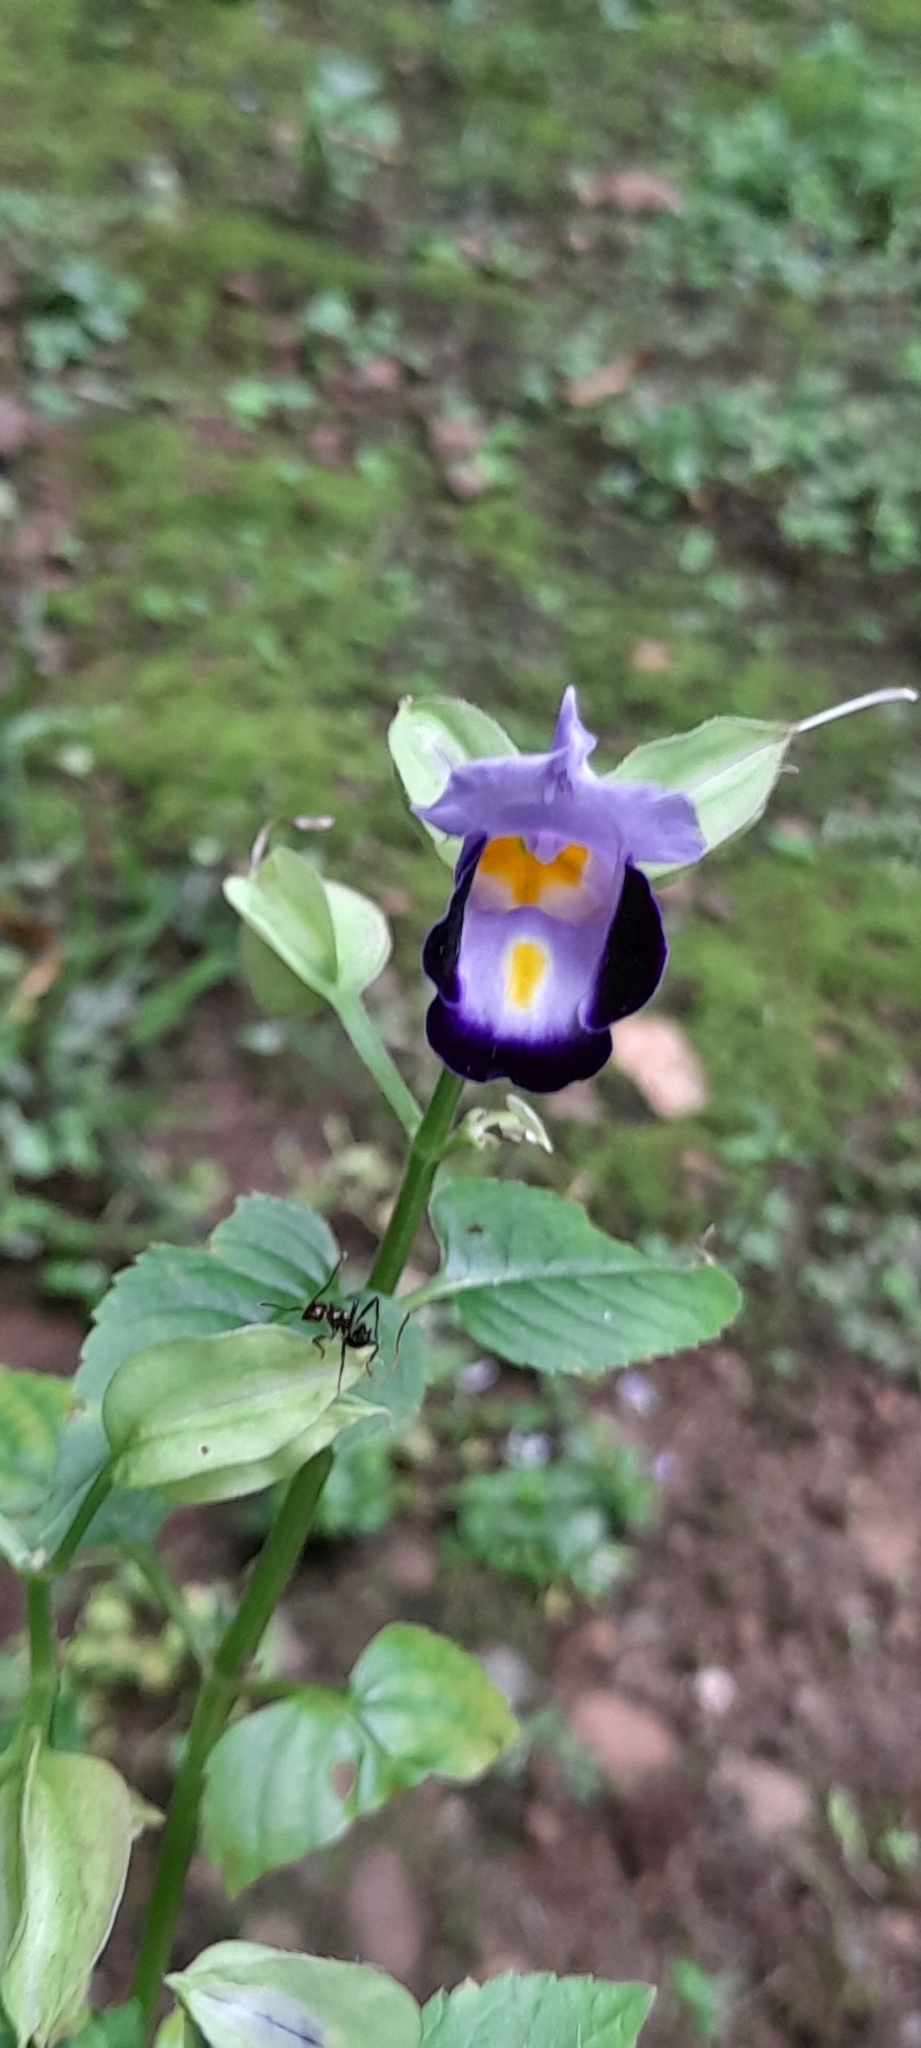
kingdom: Plantae
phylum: Tracheophyta
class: Magnoliopsida
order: Lamiales
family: Linderniaceae
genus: Torenia
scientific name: Torenia fournieri
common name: Bluewings
